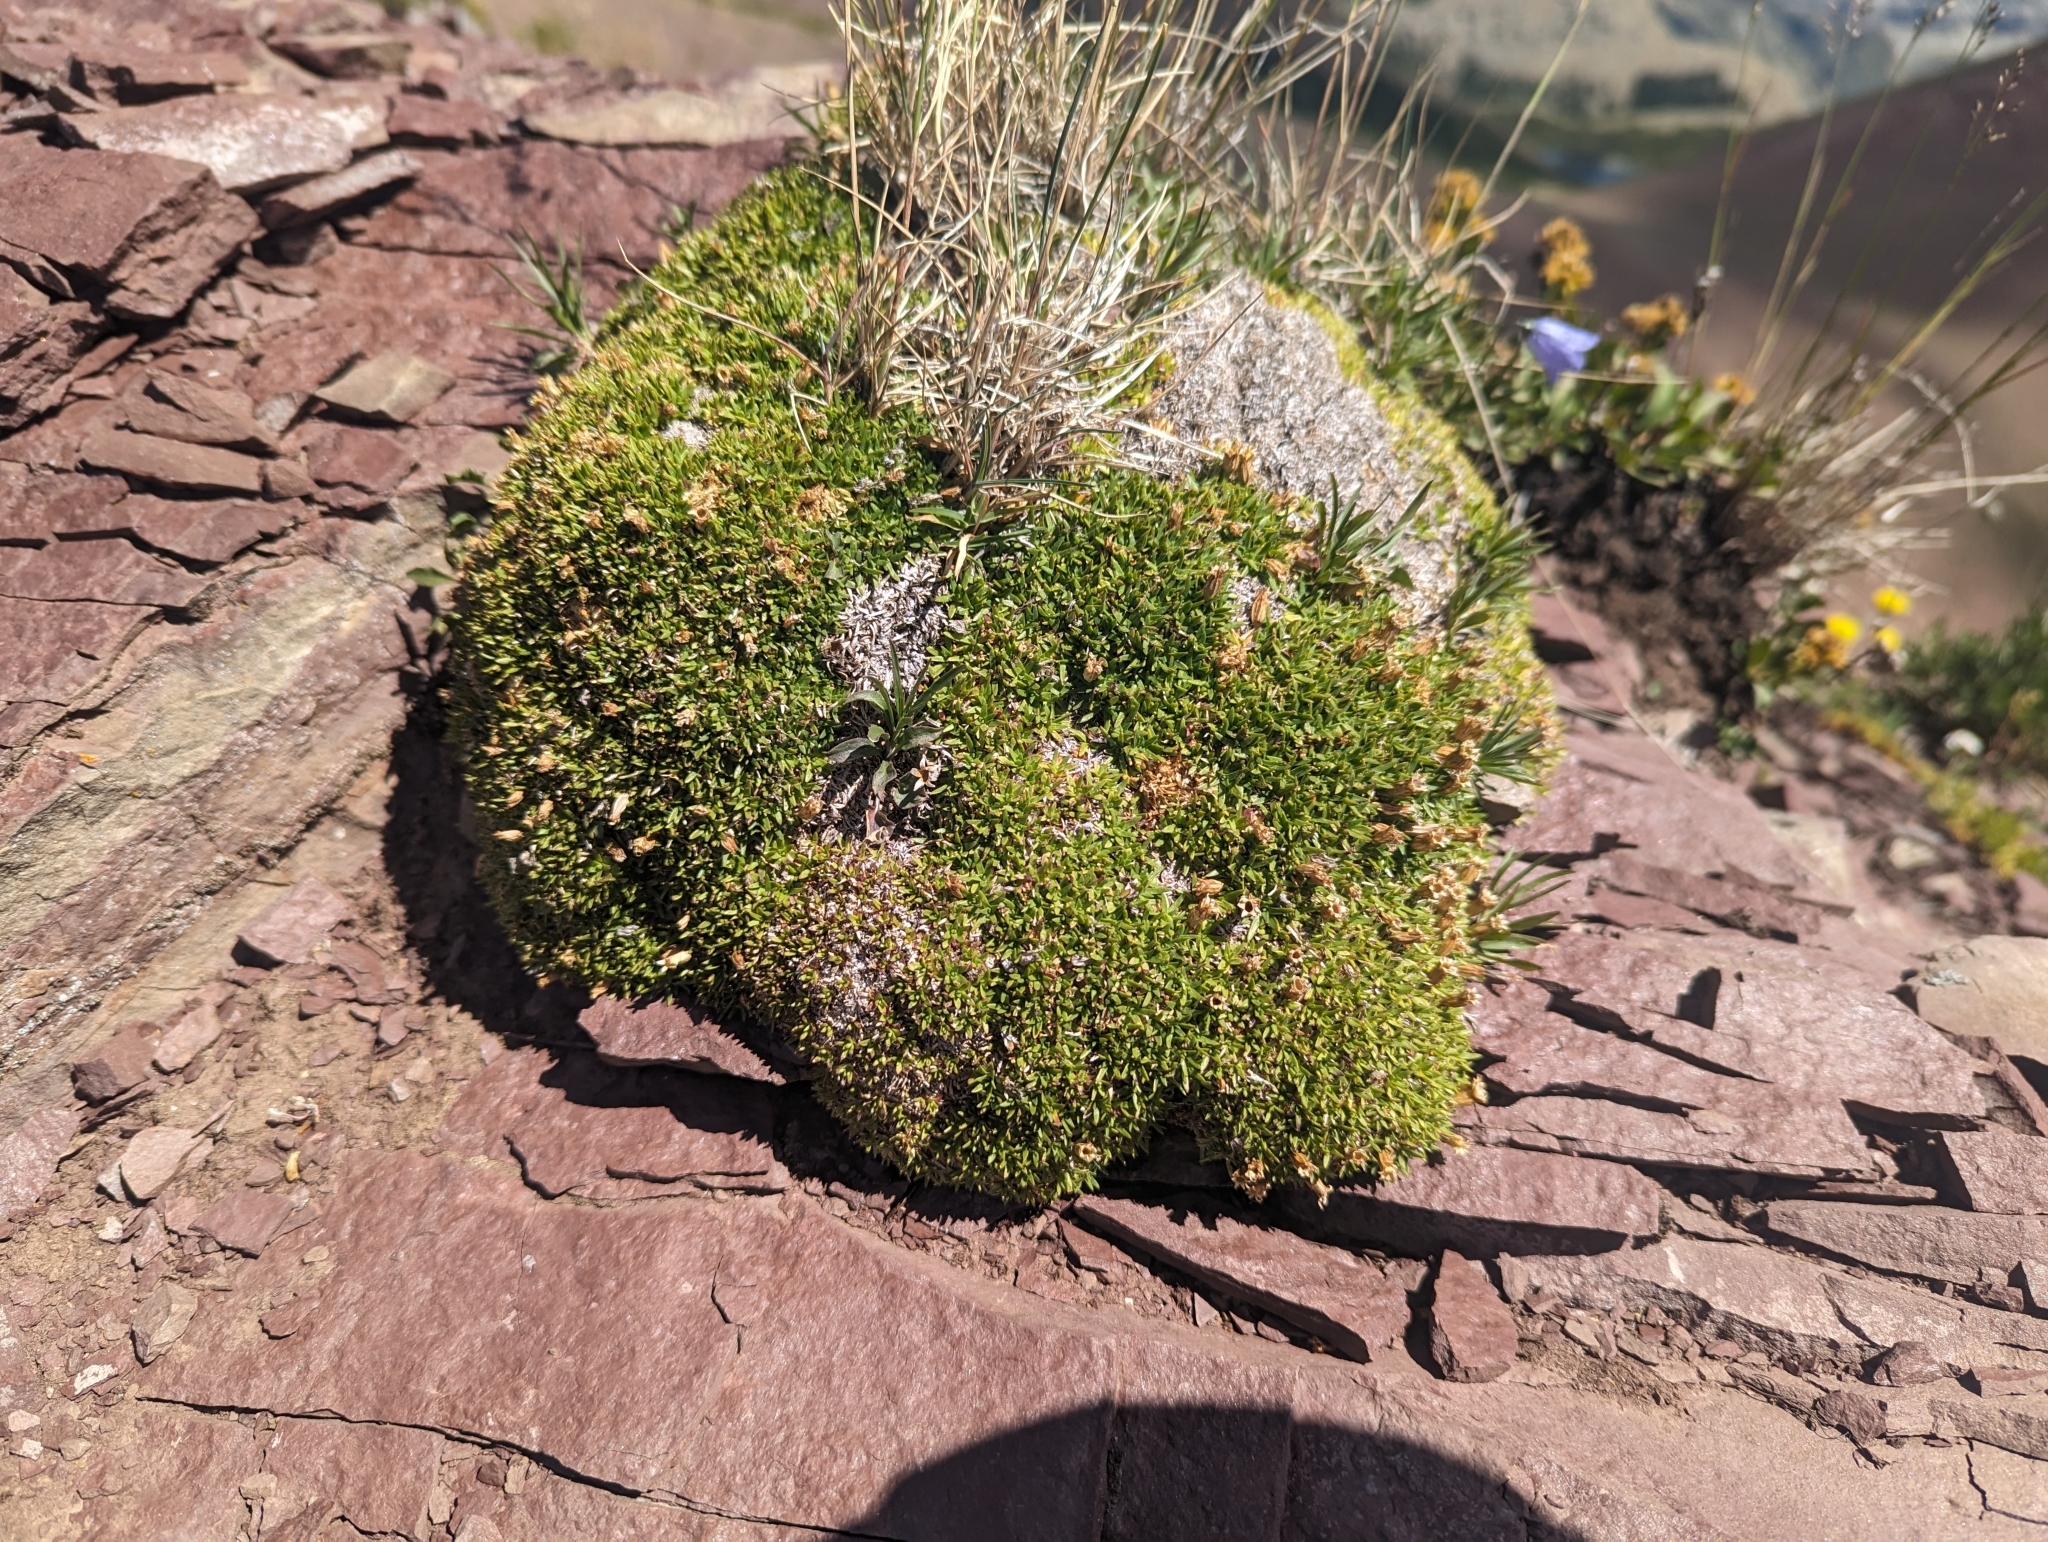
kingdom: Plantae
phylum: Tracheophyta
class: Magnoliopsida
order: Caryophyllales
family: Caryophyllaceae
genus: Silene
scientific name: Silene acaulis
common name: Moss campion
